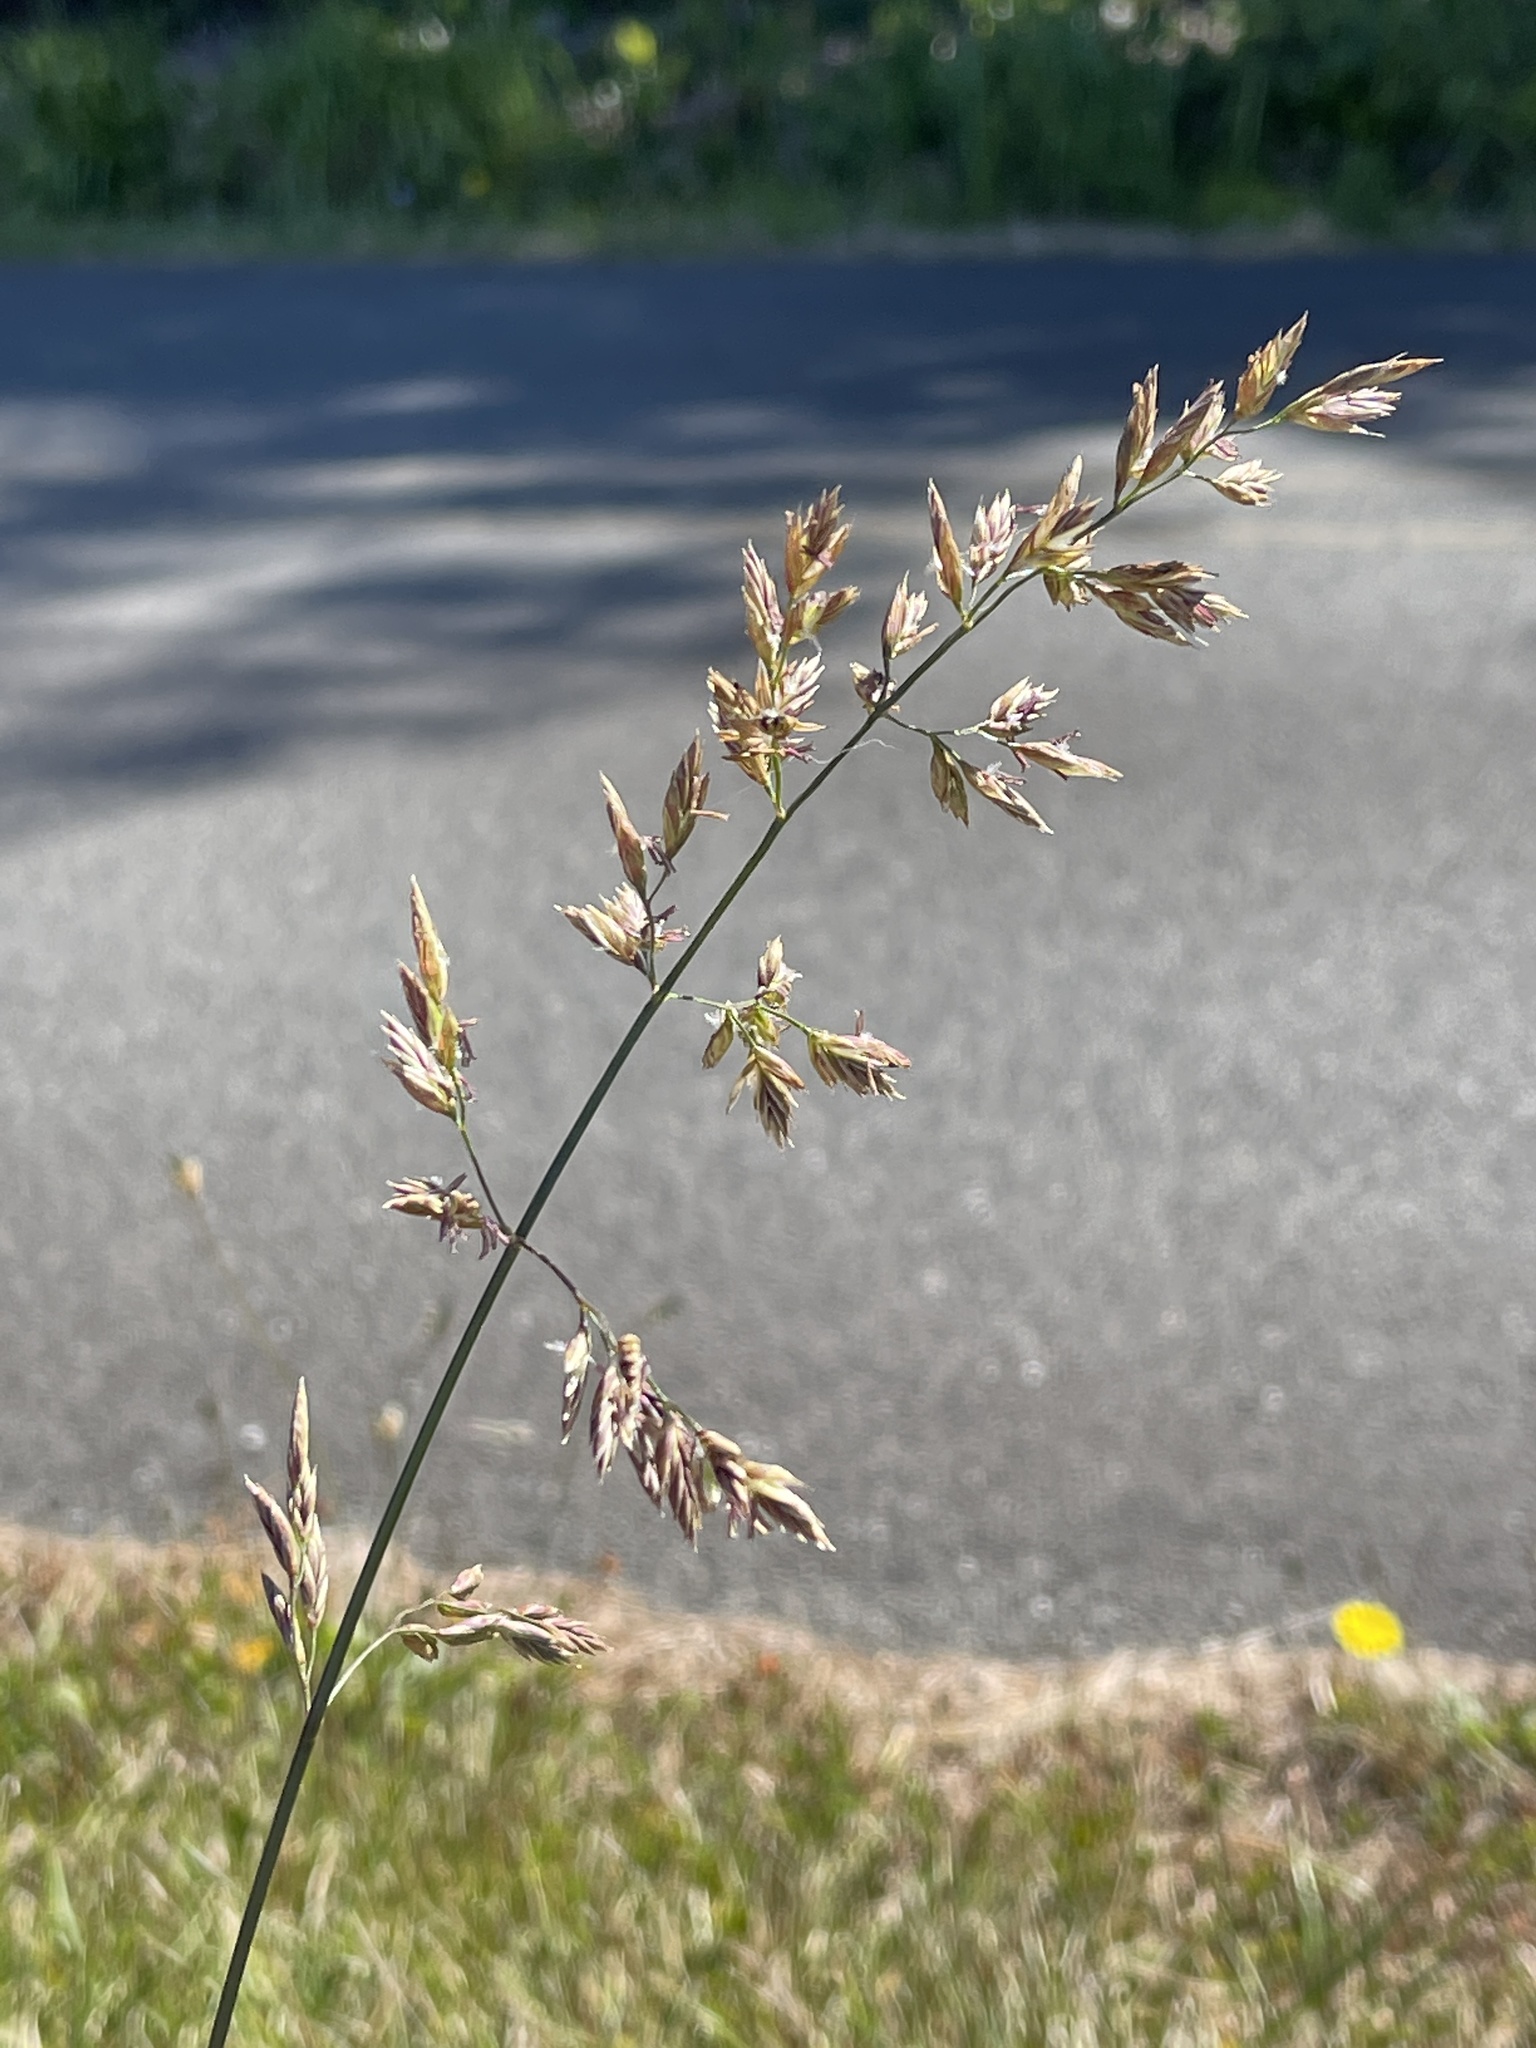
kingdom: Plantae
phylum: Tracheophyta
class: Liliopsida
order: Poales
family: Poaceae
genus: Poa
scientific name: Poa pratensis
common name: Kentucky bluegrass
